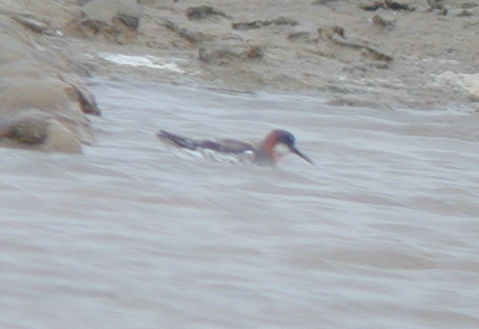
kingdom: Animalia
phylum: Chordata
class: Aves
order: Charadriiformes
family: Scolopacidae
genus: Phalaropus
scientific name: Phalaropus lobatus
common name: Red-necked phalarope
